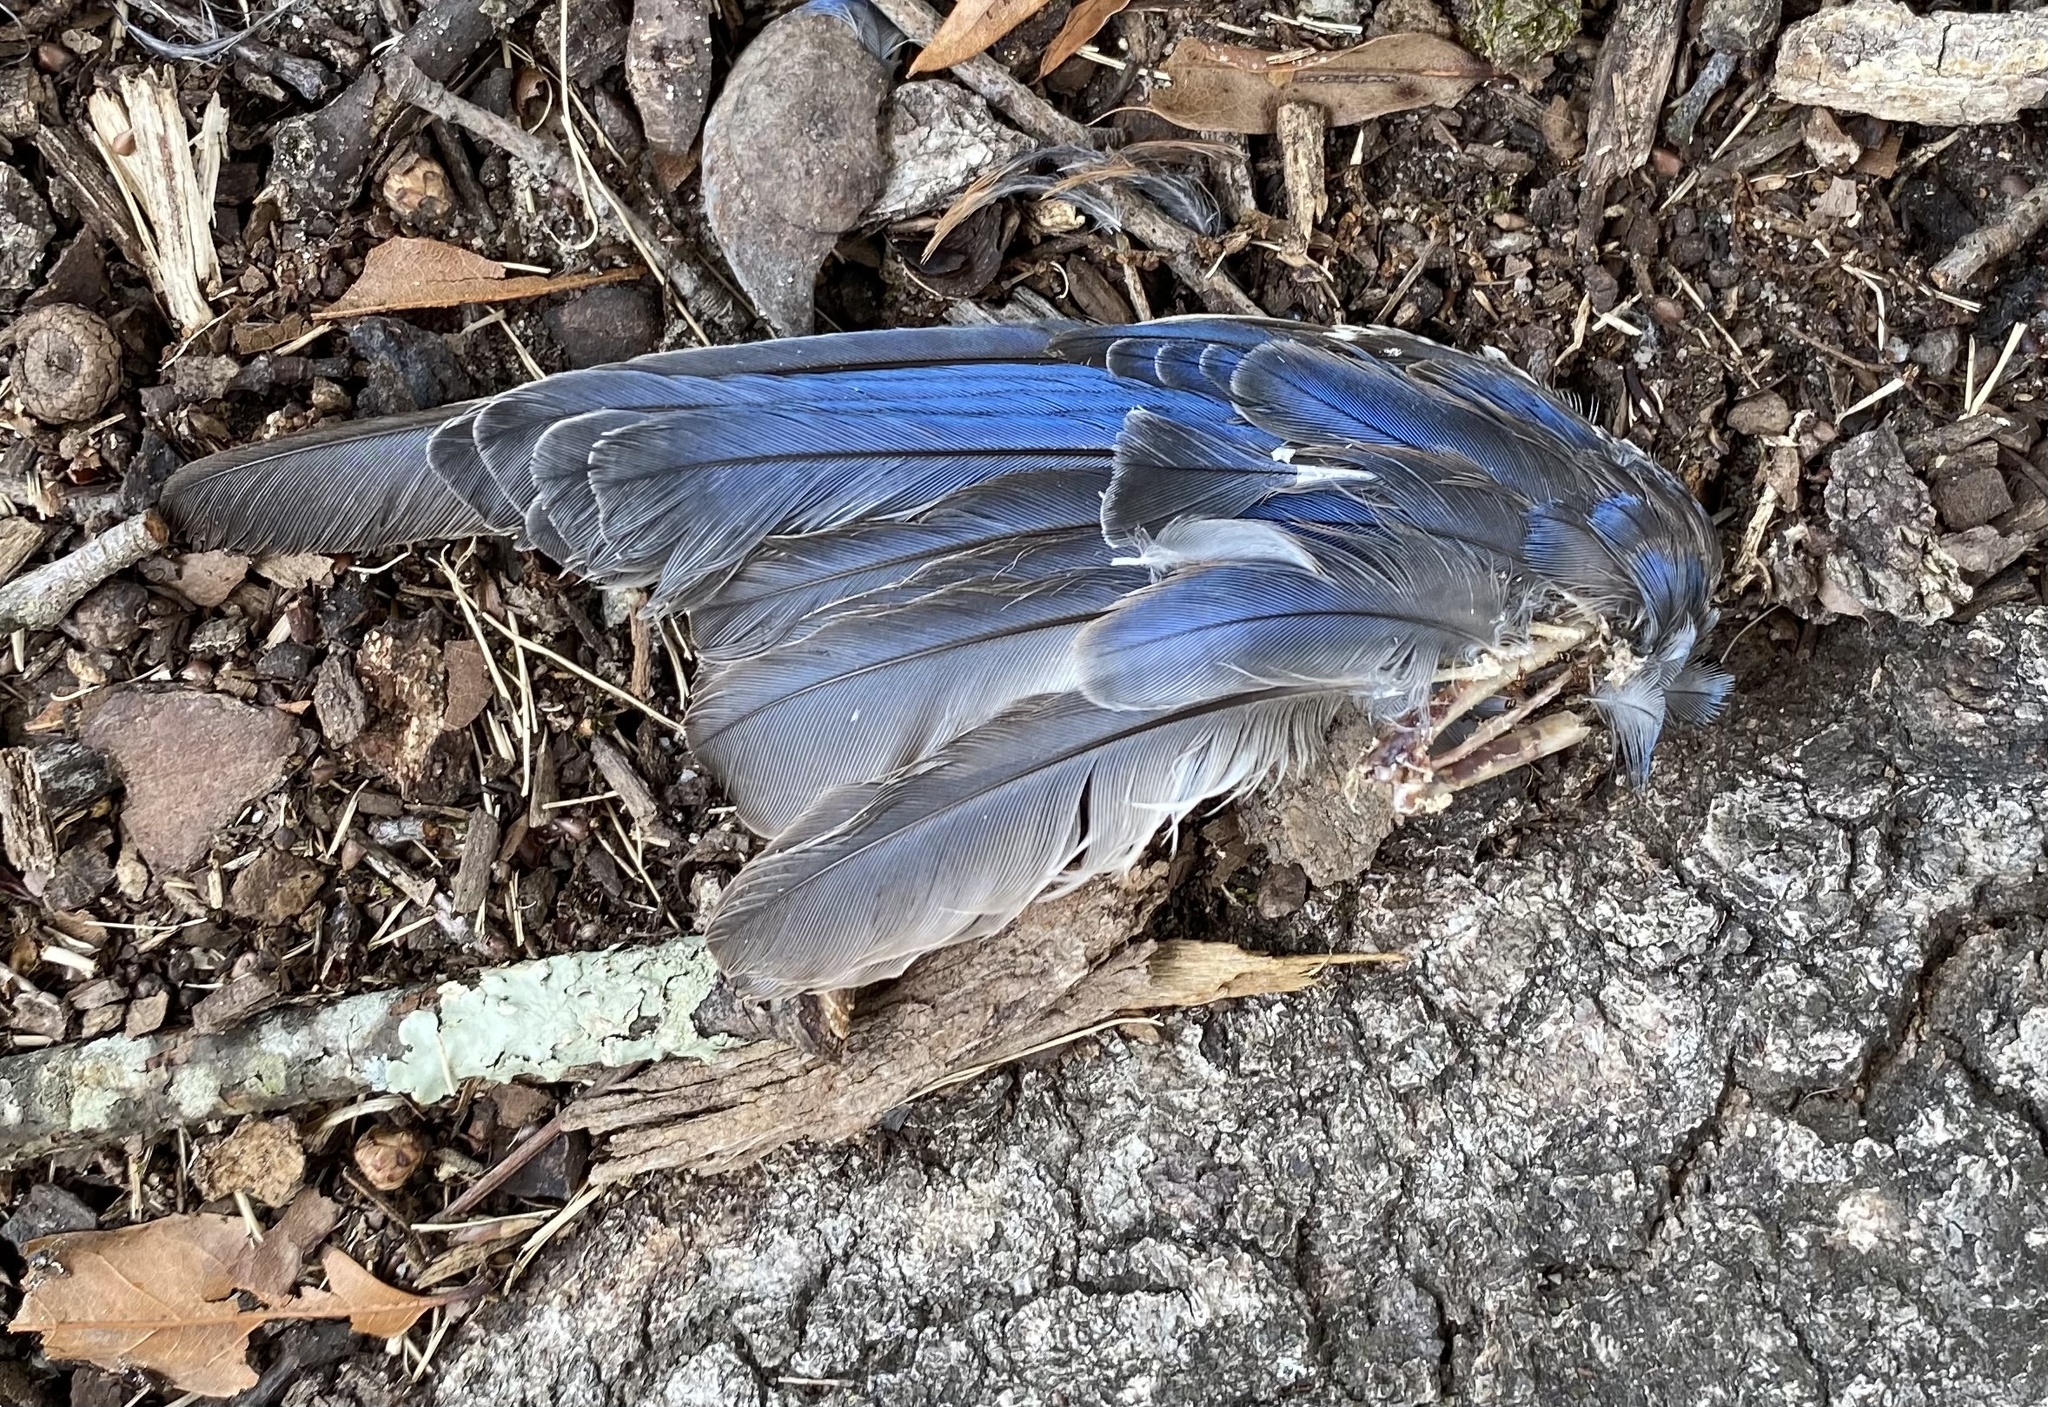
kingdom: Animalia
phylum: Chordata
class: Aves
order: Passeriformes
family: Turdidae
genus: Sialia
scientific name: Sialia sialis
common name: Eastern bluebird
